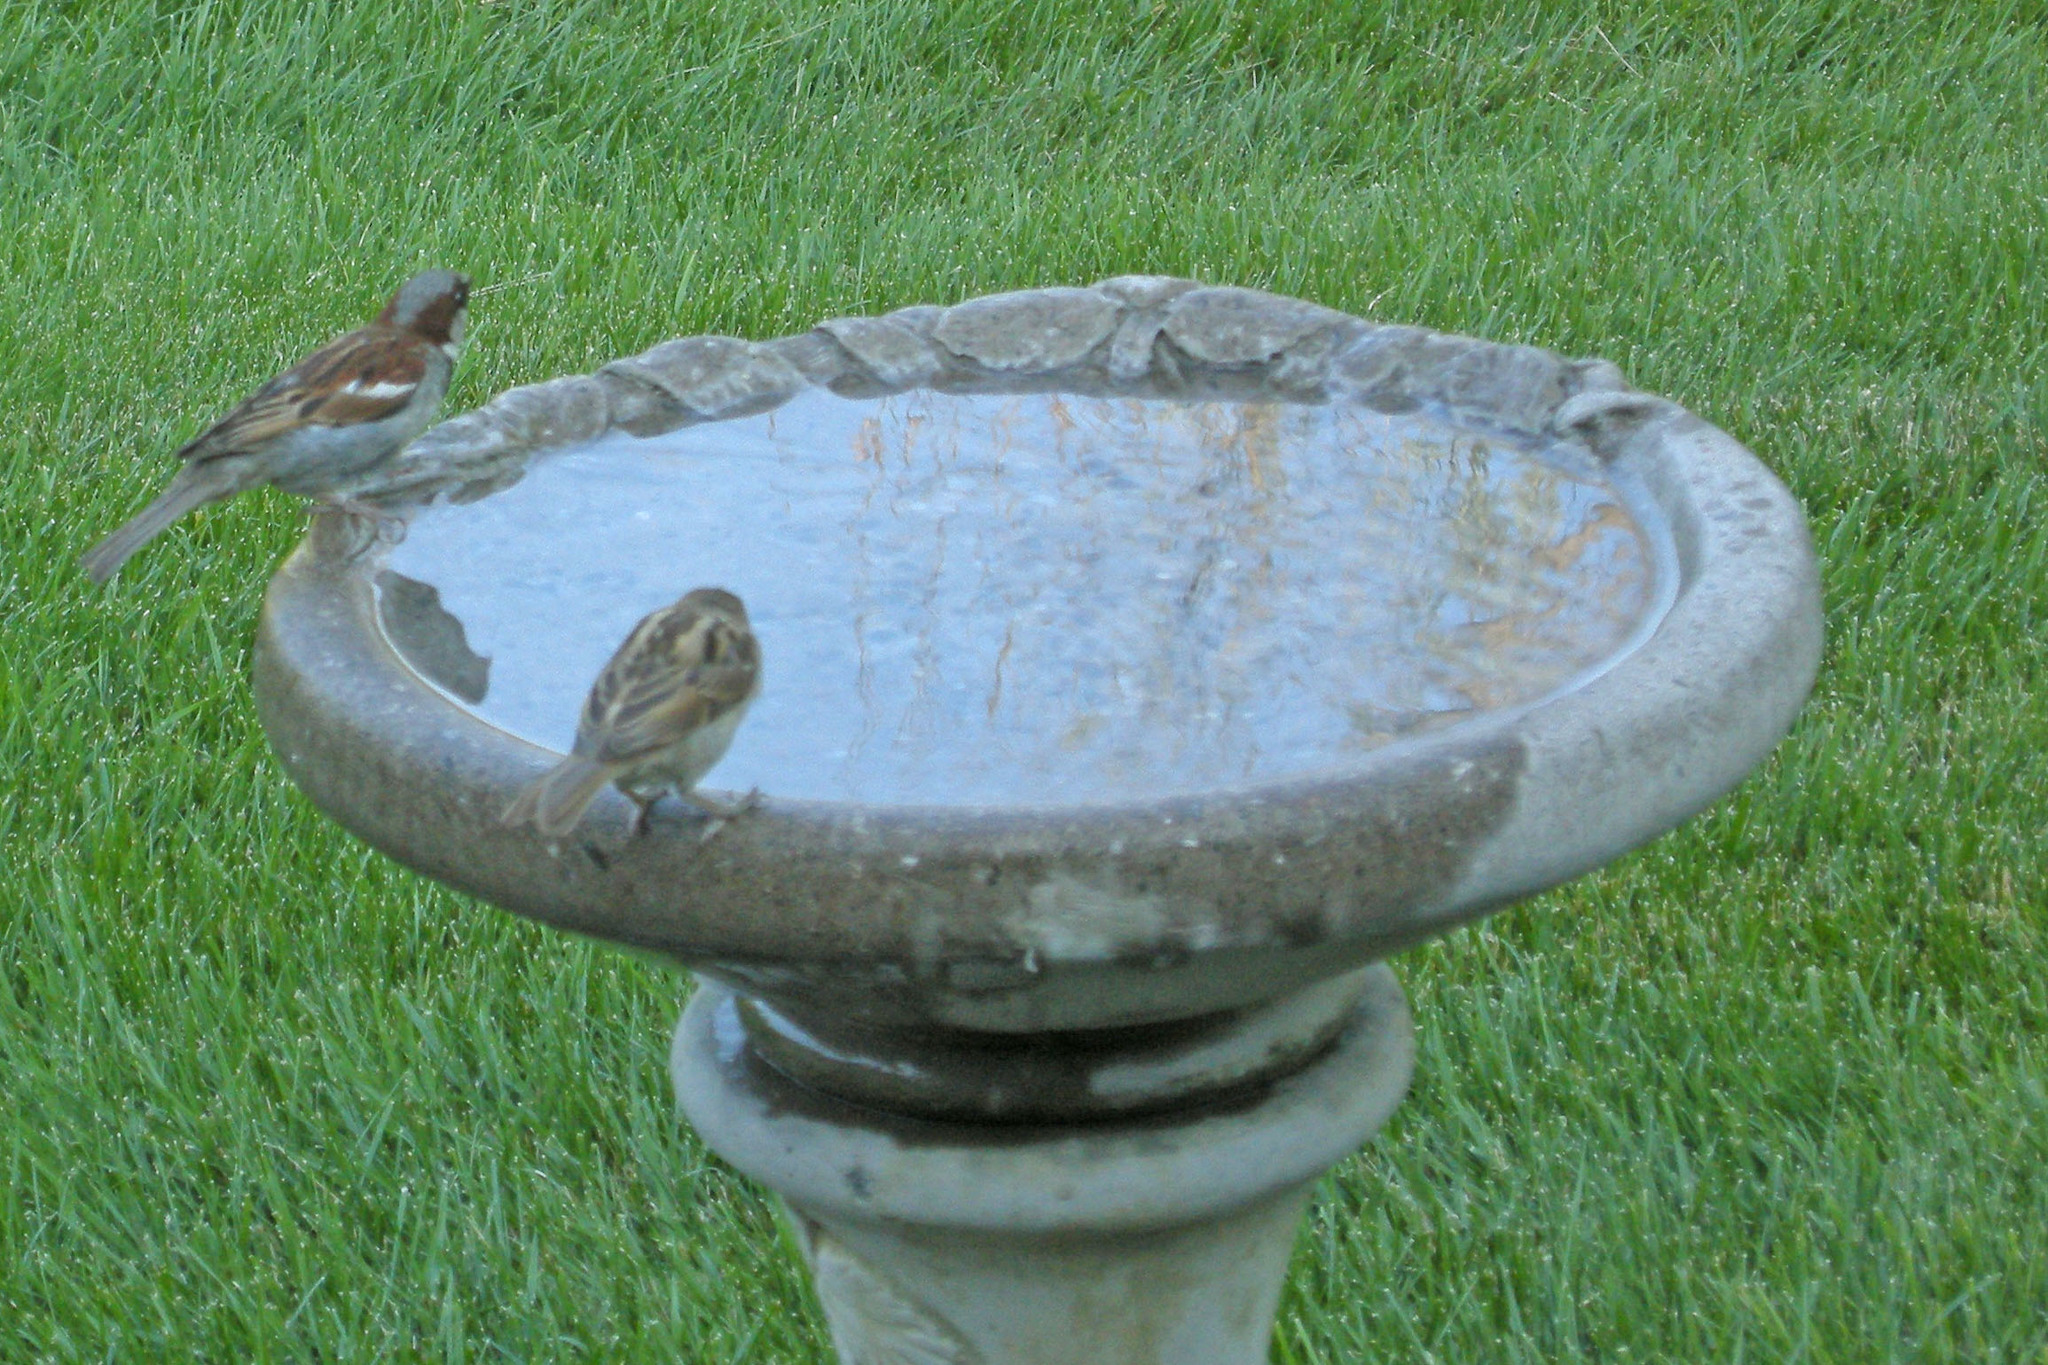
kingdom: Animalia
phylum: Chordata
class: Aves
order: Passeriformes
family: Passeridae
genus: Passer
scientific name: Passer domesticus
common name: House sparrow
